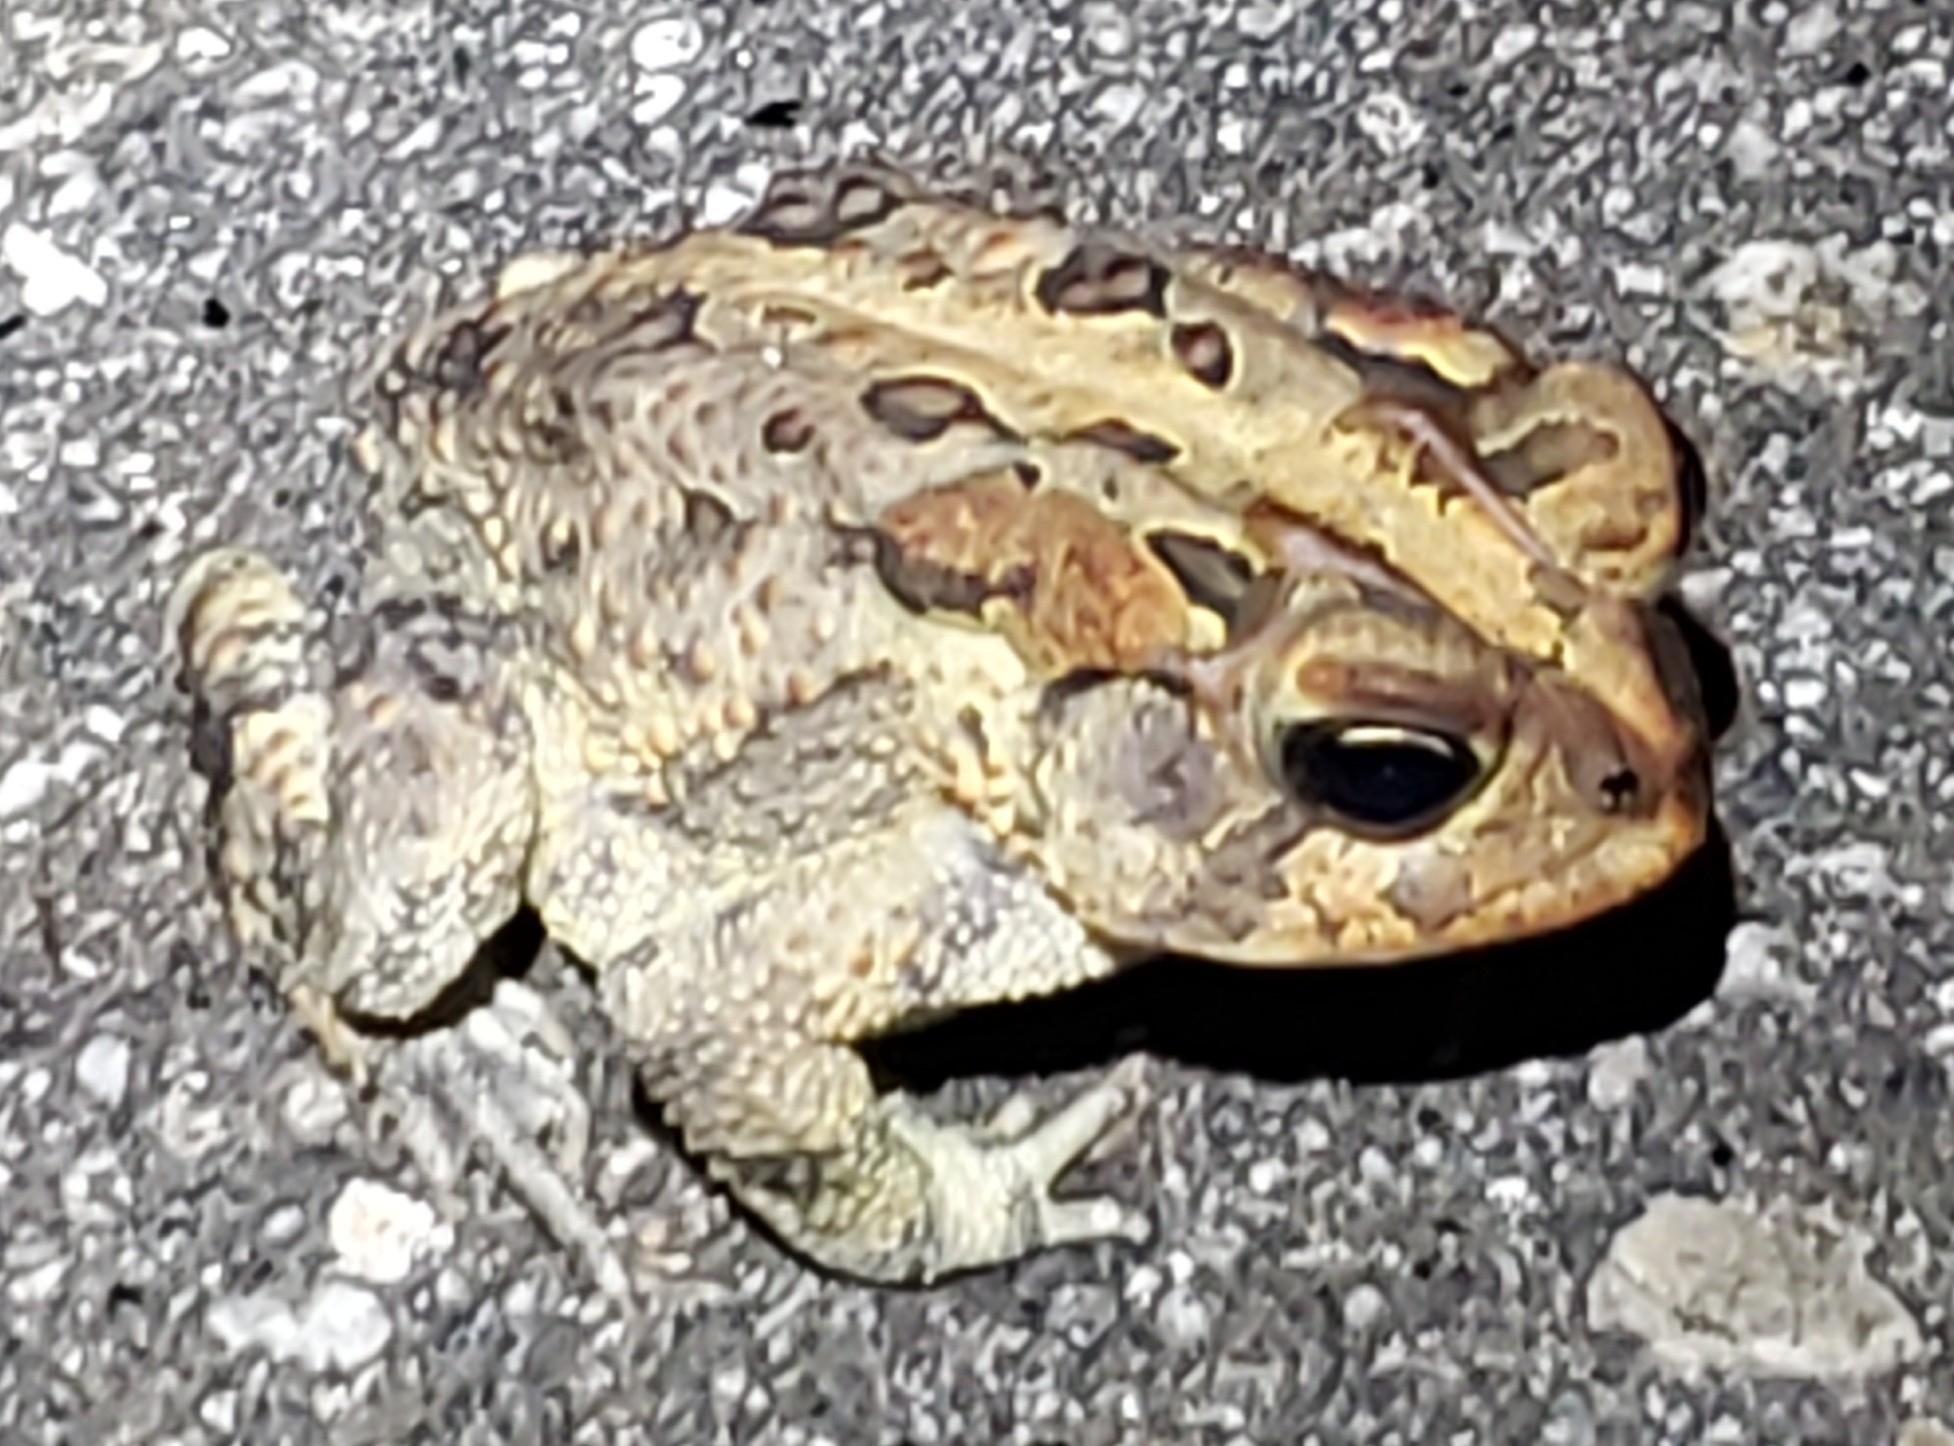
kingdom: Animalia
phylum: Chordata
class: Amphibia
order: Anura
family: Bufonidae
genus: Anaxyrus
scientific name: Anaxyrus terrestris
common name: Southern toad
